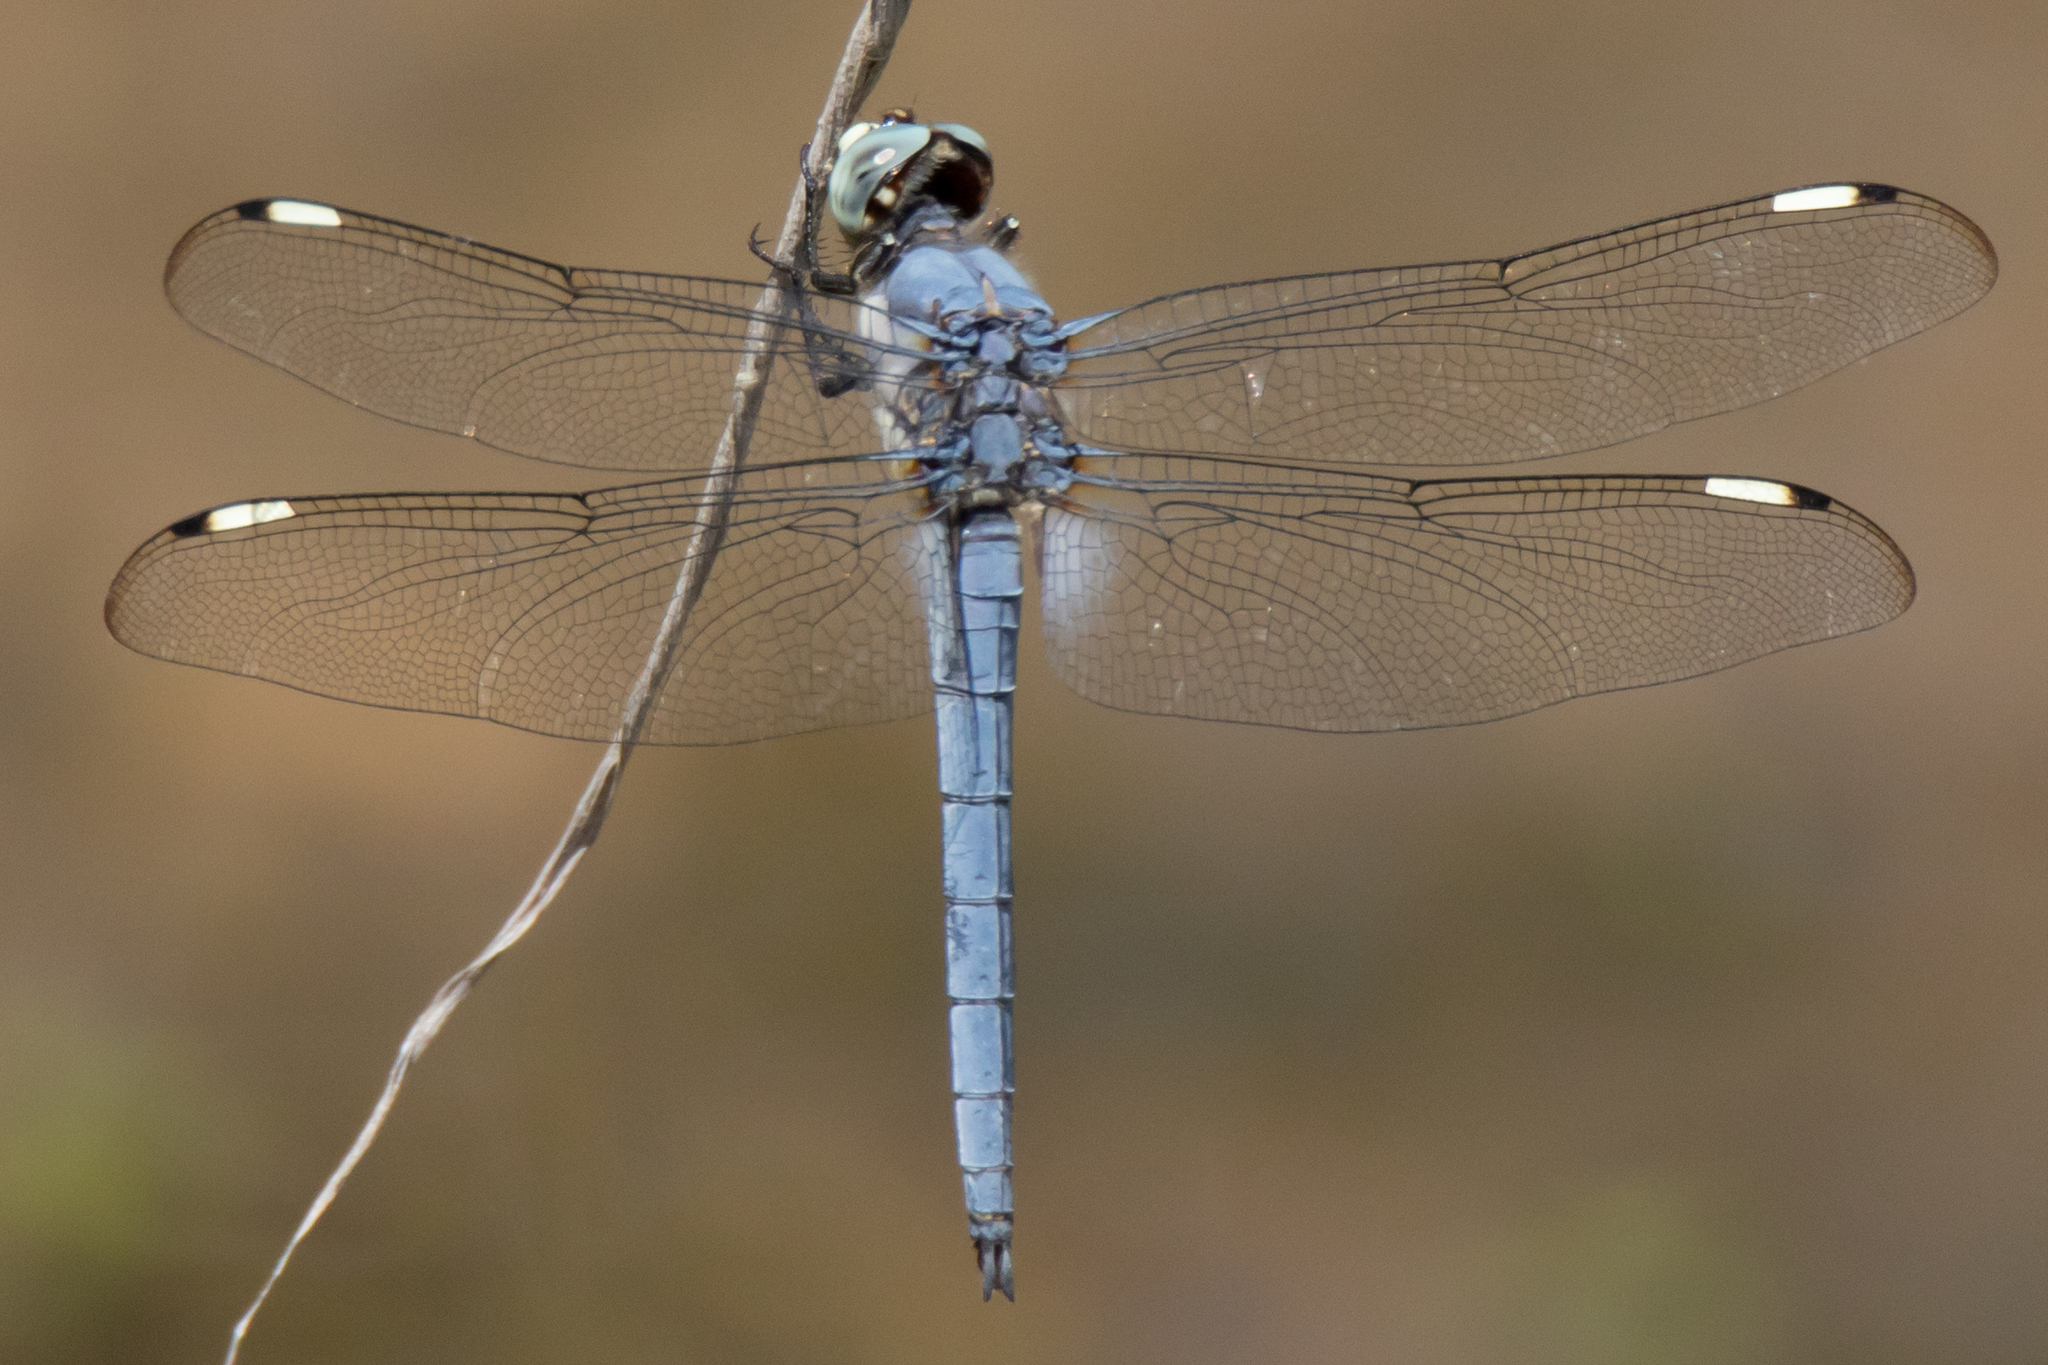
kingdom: Animalia
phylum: Arthropoda
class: Insecta
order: Odonata
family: Libellulidae
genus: Libellula
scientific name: Libellula comanche
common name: Comanche skimmer
